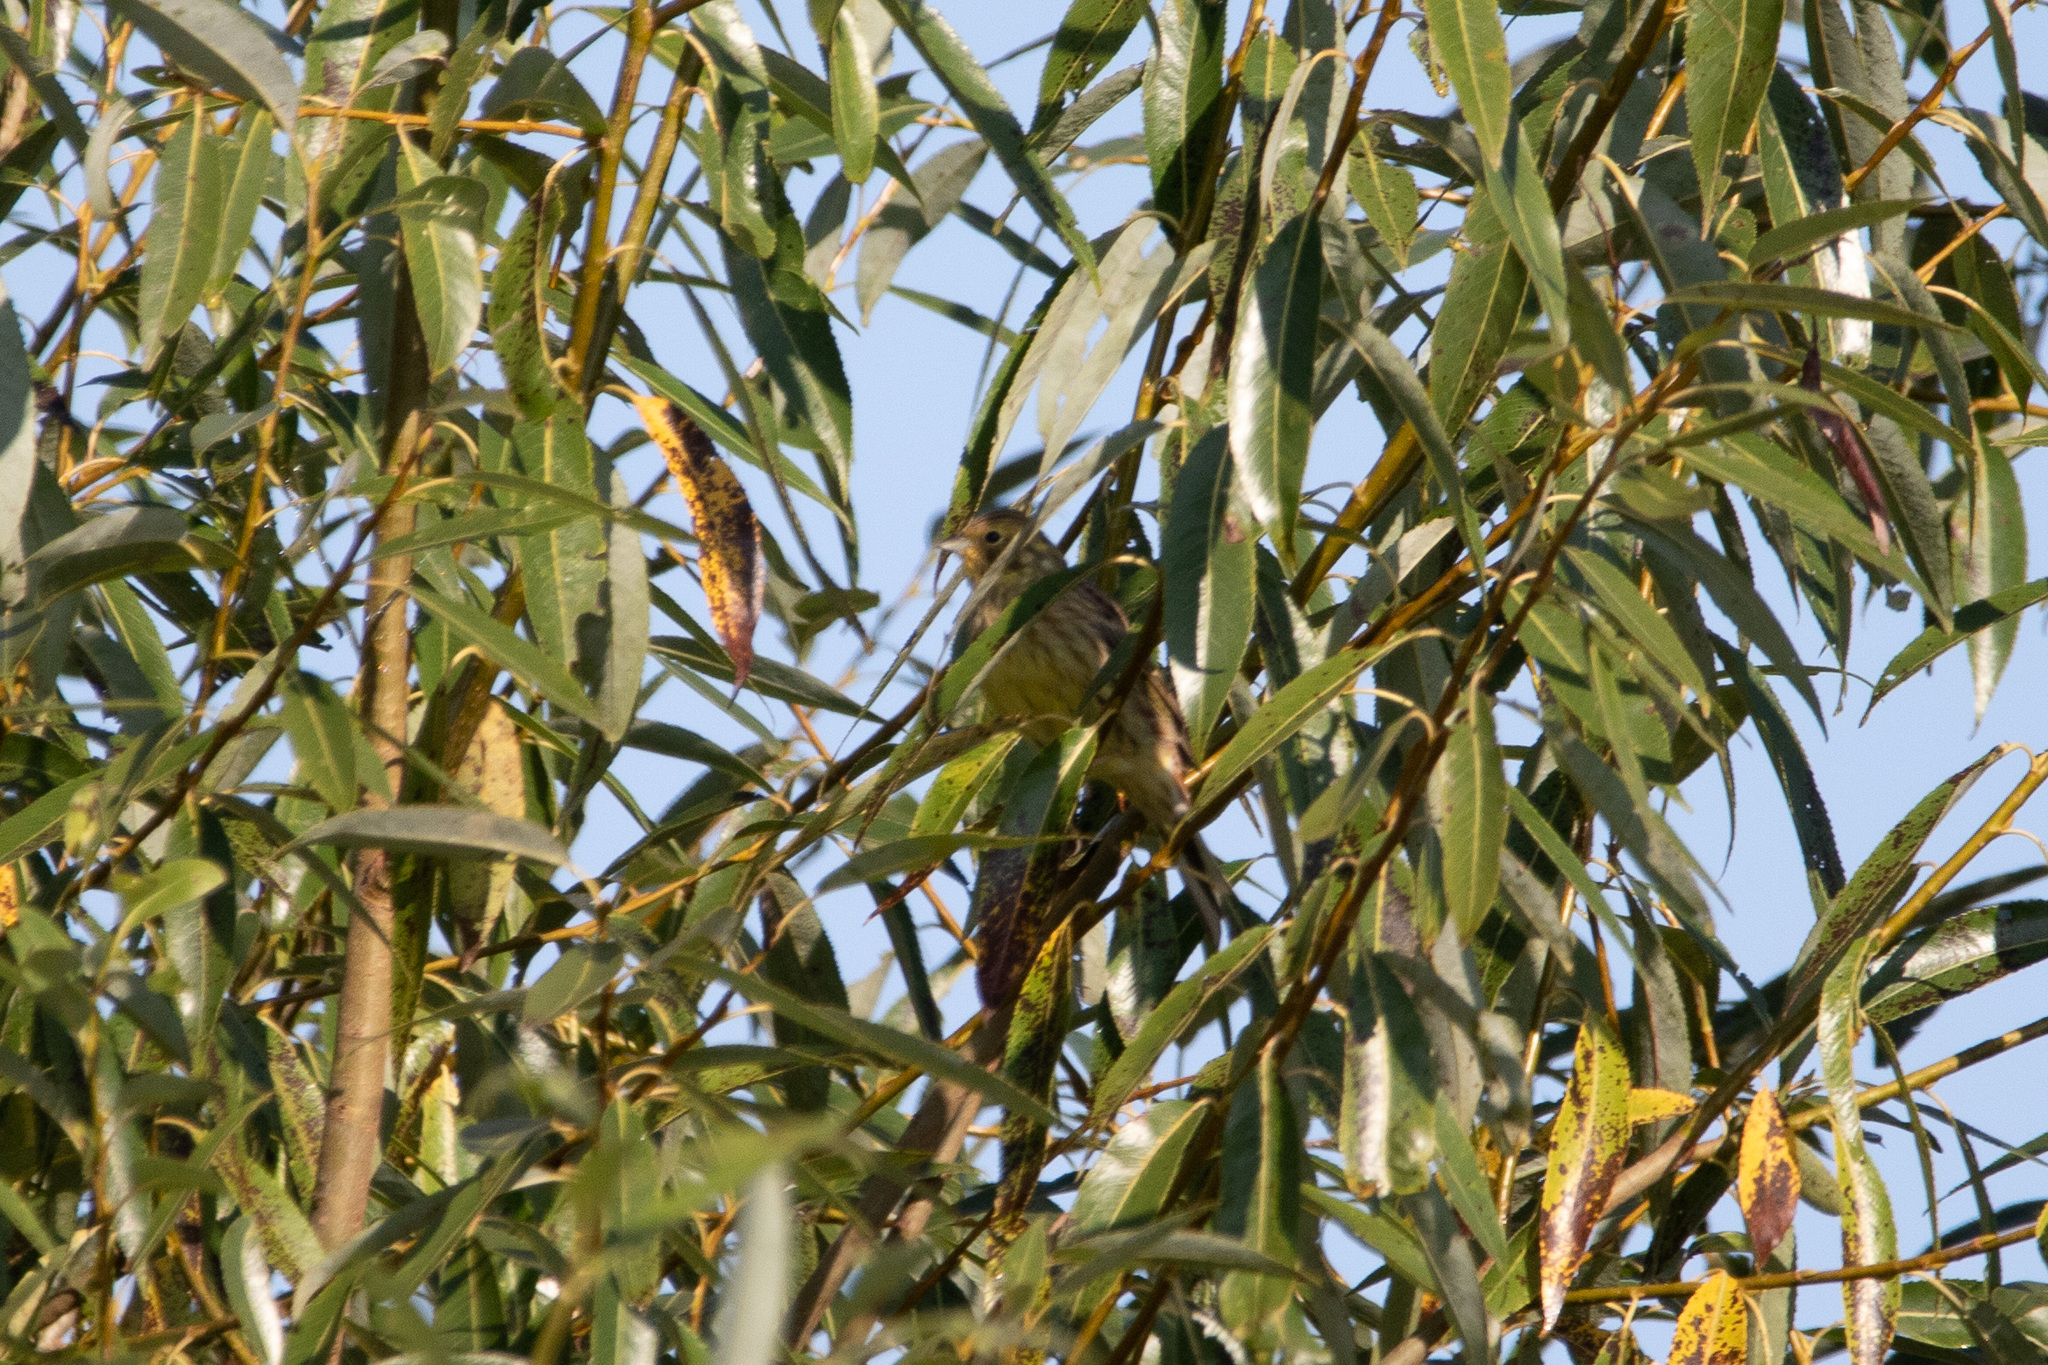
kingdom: Animalia
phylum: Chordata
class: Aves
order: Passeriformes
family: Emberizidae
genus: Emberiza
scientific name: Emberiza citrinella
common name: Yellowhammer
